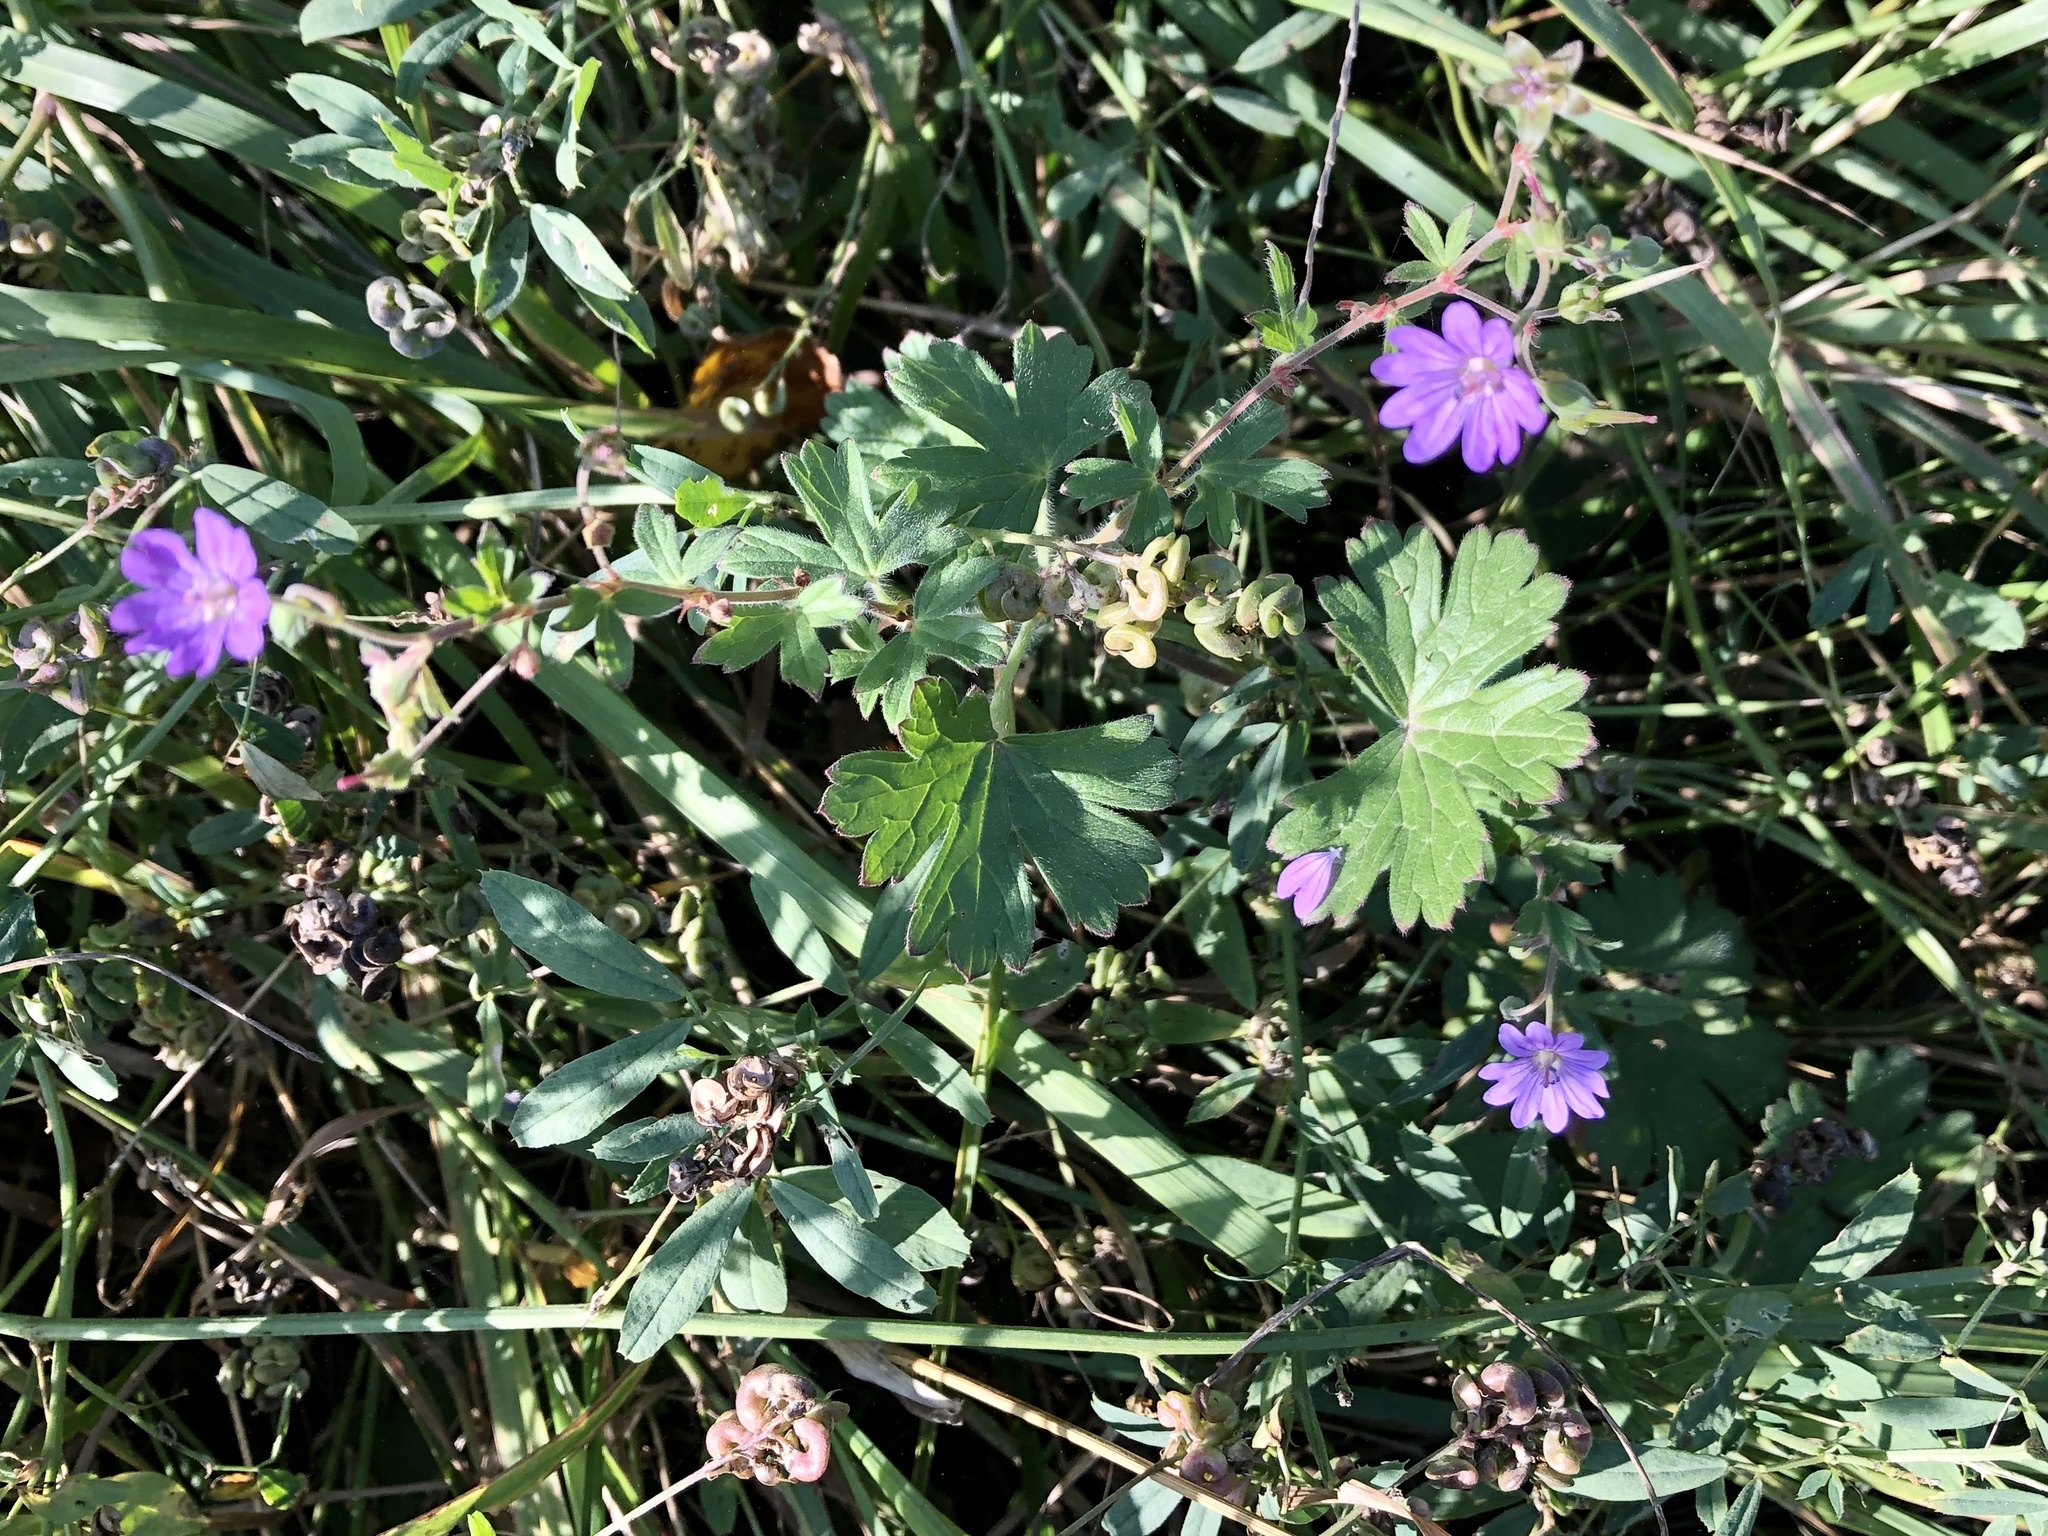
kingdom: Plantae
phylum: Tracheophyta
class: Magnoliopsida
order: Geraniales
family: Geraniaceae
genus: Geranium
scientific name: Geranium pyrenaicum
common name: Hedgerow crane's-bill
